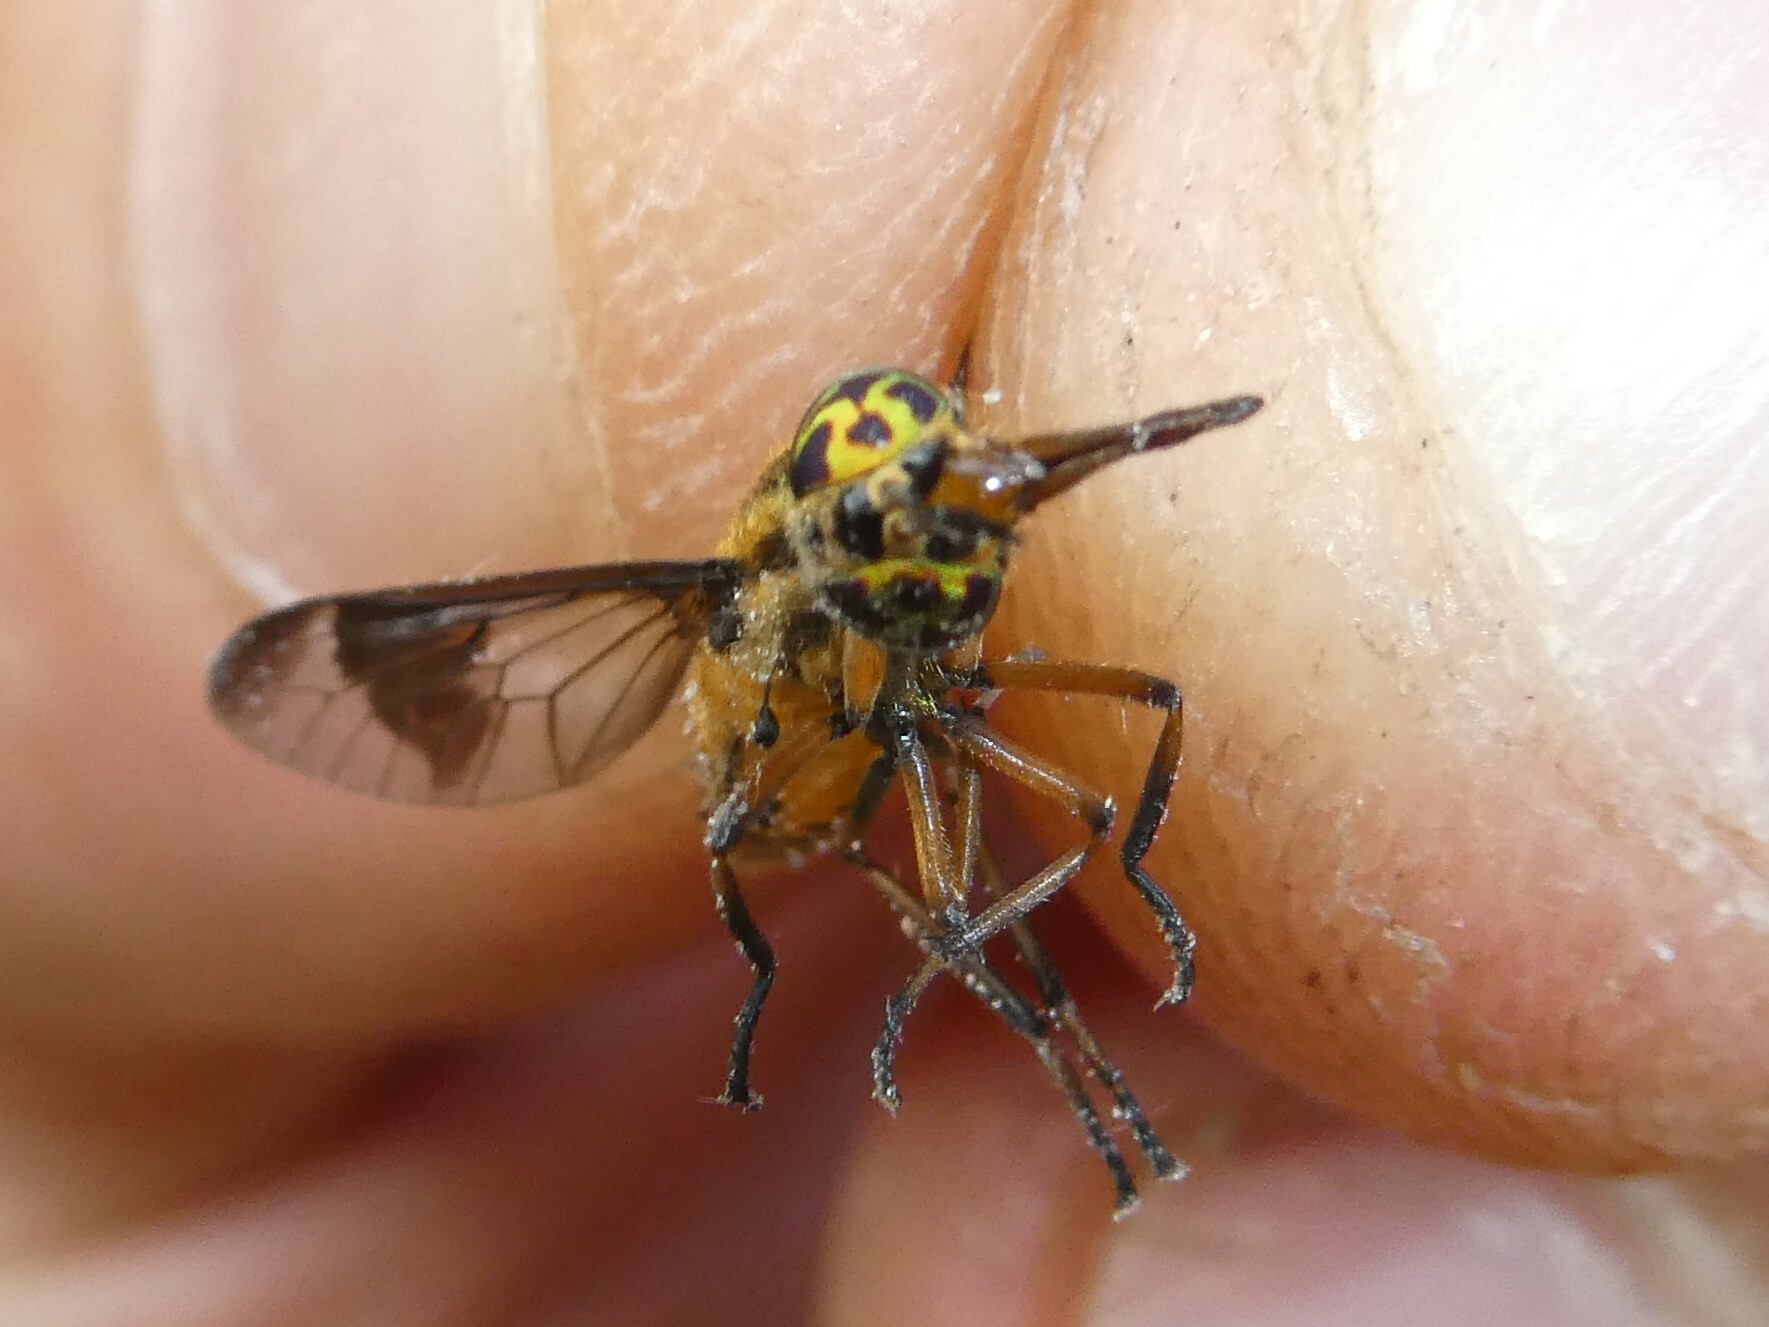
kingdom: Animalia
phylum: Arthropoda
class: Insecta
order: Diptera
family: Tabanidae
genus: Chrysops
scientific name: Chrysops lateralis
